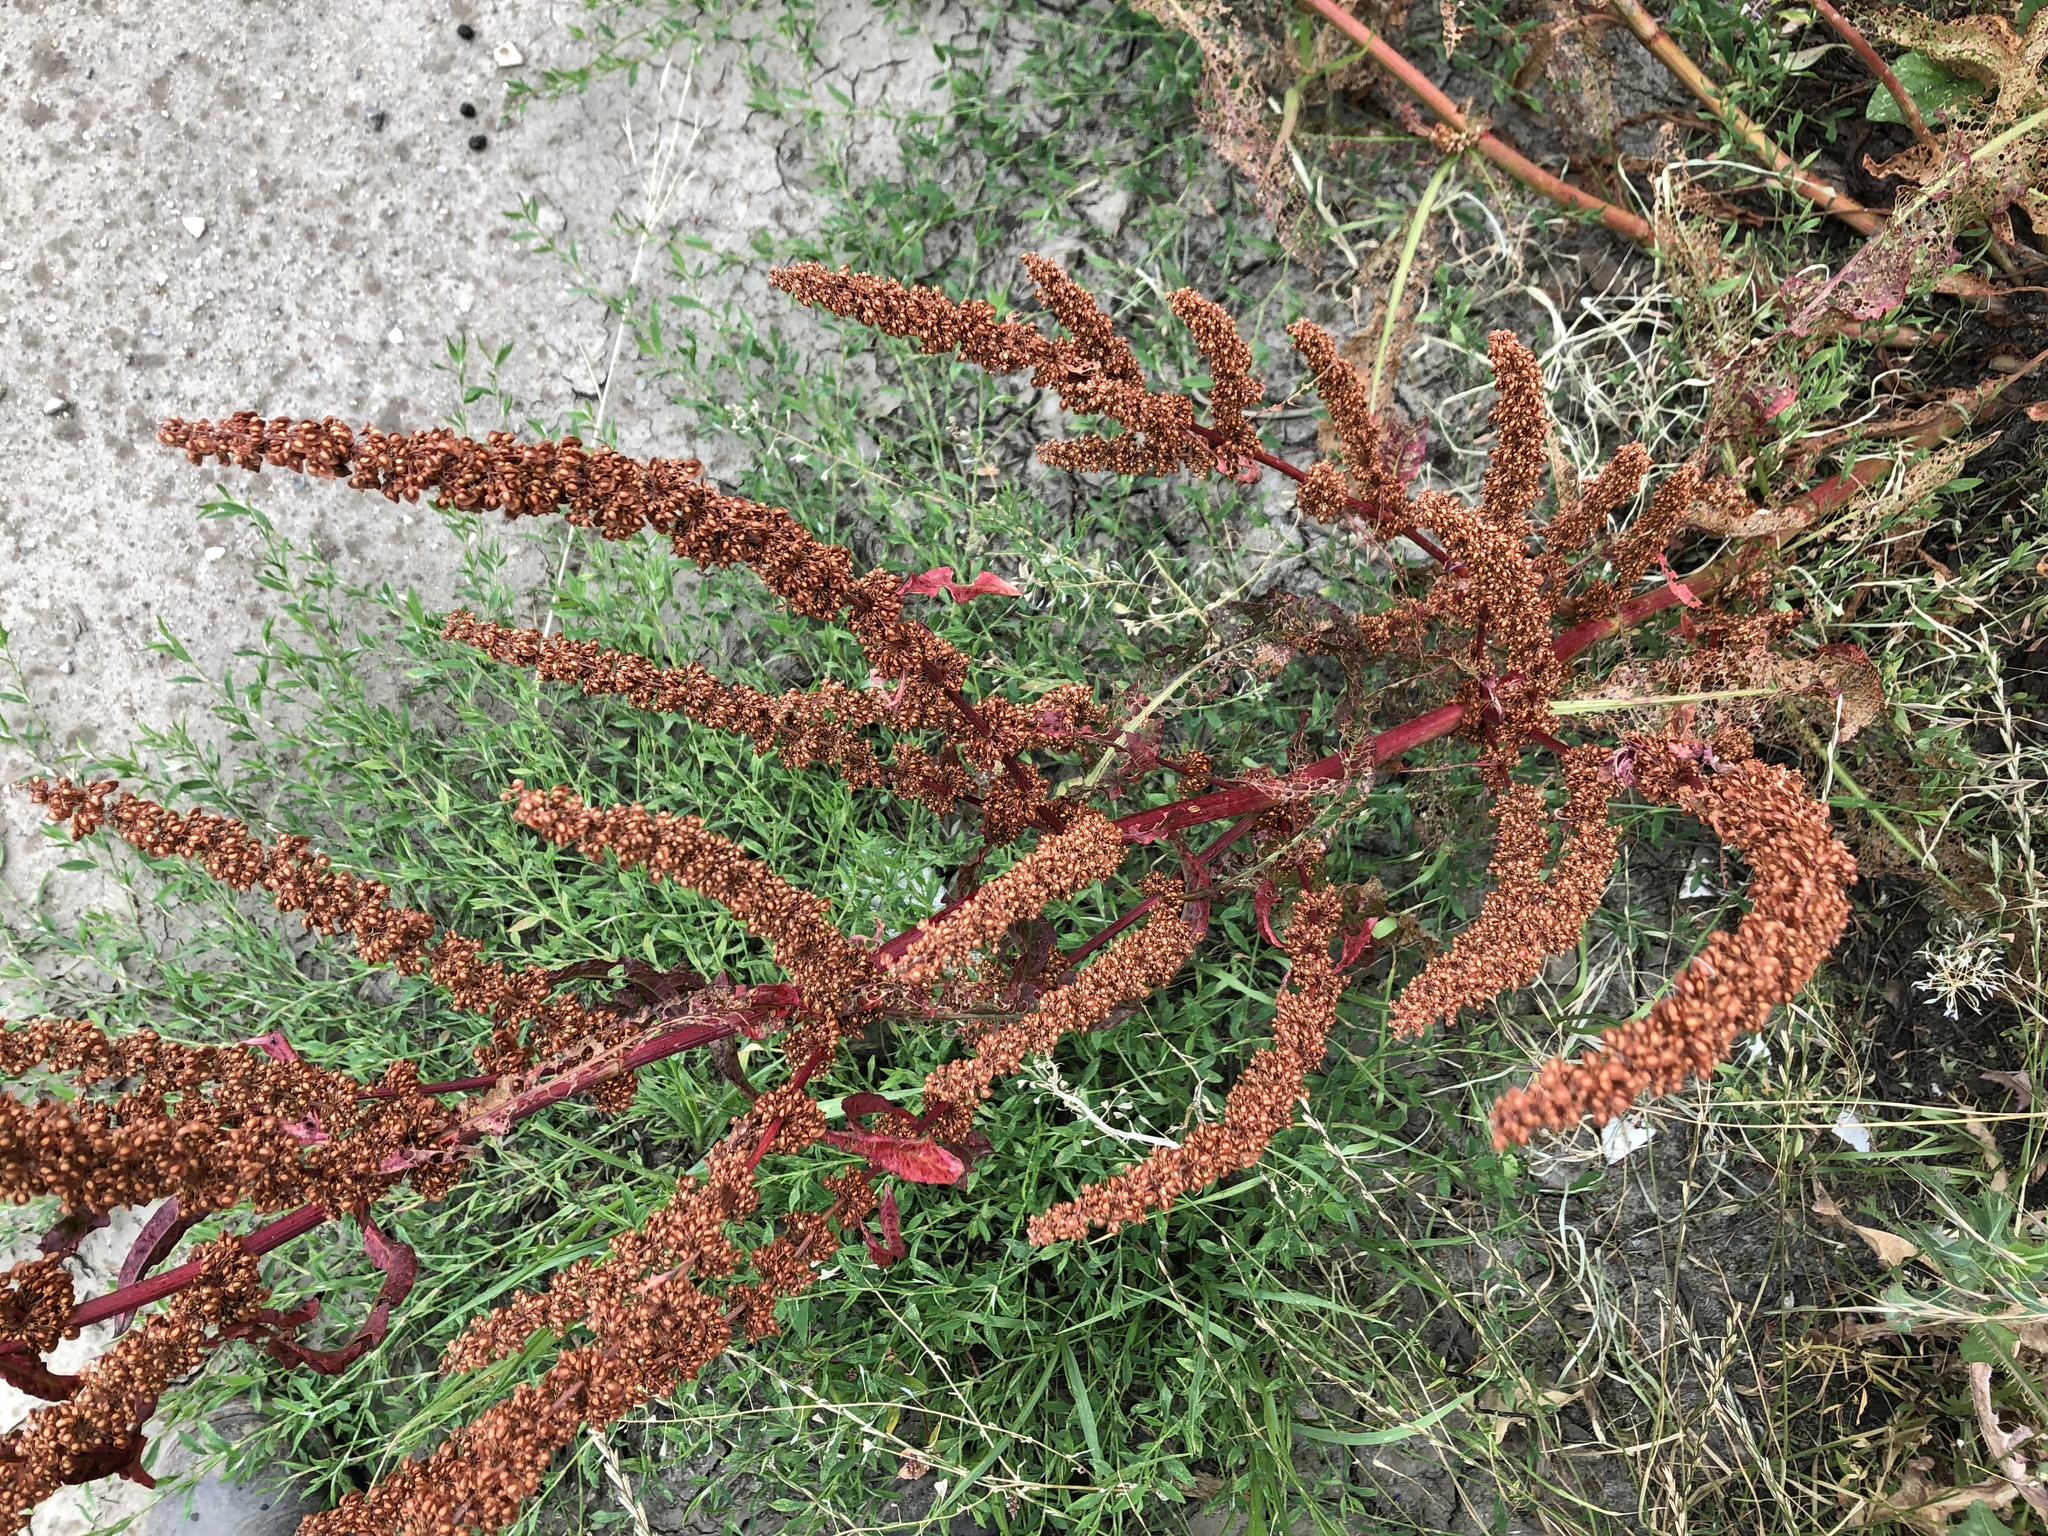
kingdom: Plantae
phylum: Tracheophyta
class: Magnoliopsida
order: Caryophyllales
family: Polygonaceae
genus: Rumex
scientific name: Rumex crispus
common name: Curled dock
